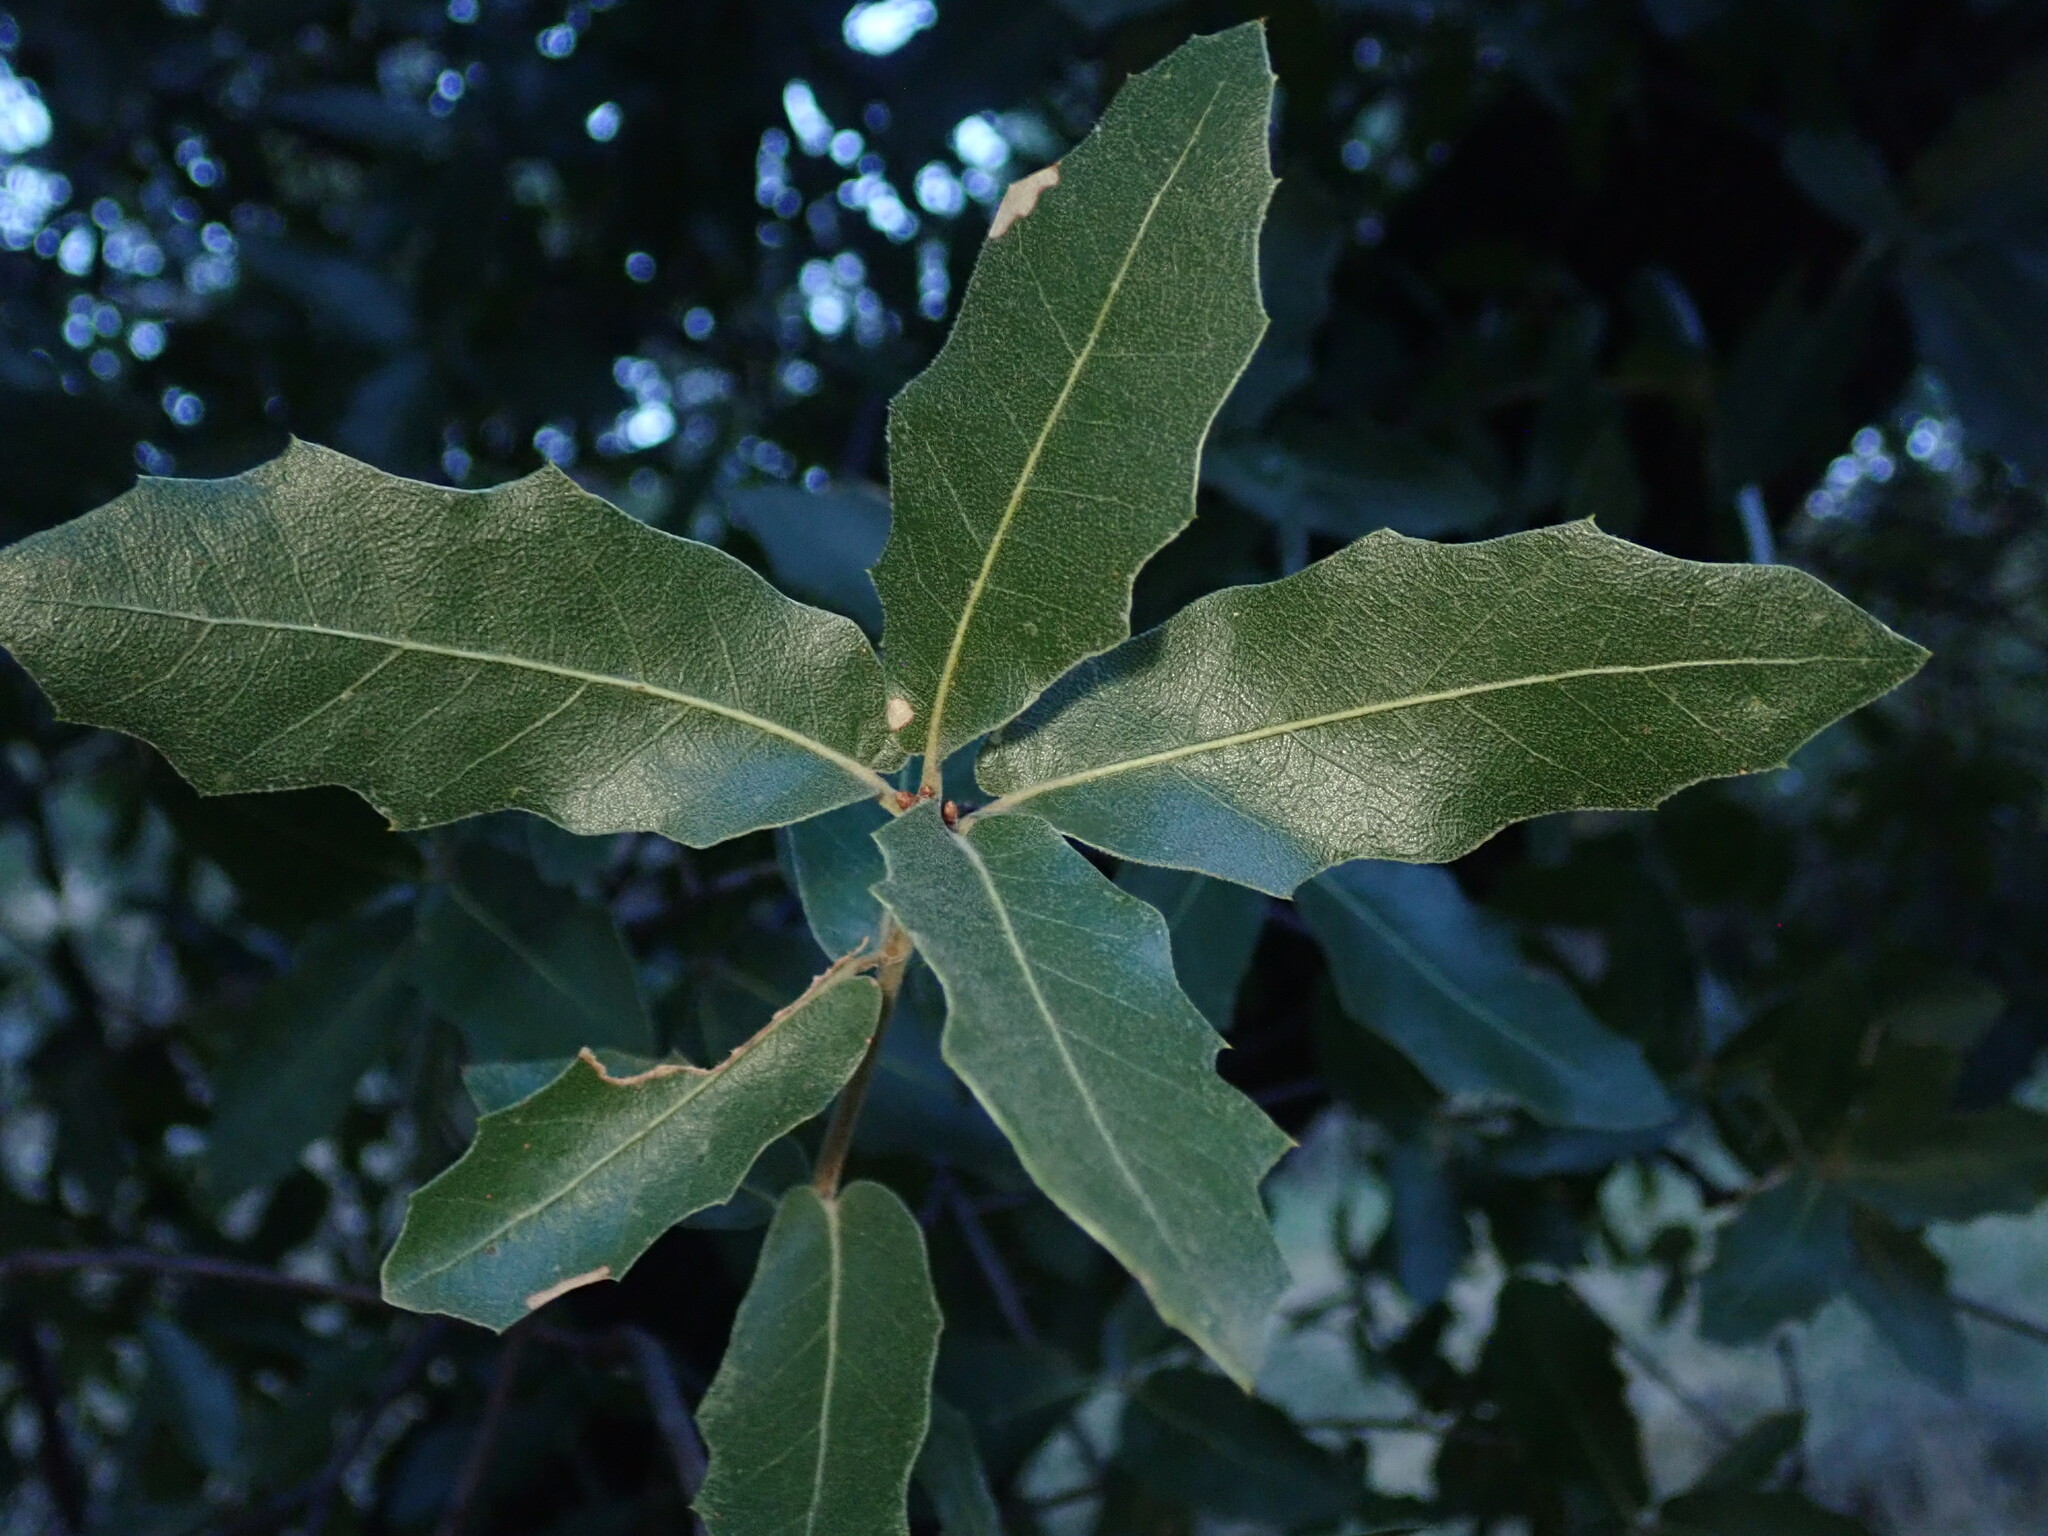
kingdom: Plantae
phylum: Tracheophyta
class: Magnoliopsida
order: Fagales
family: Fagaceae
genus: Quercus
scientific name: Quercus emoryi
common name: Emory oak
